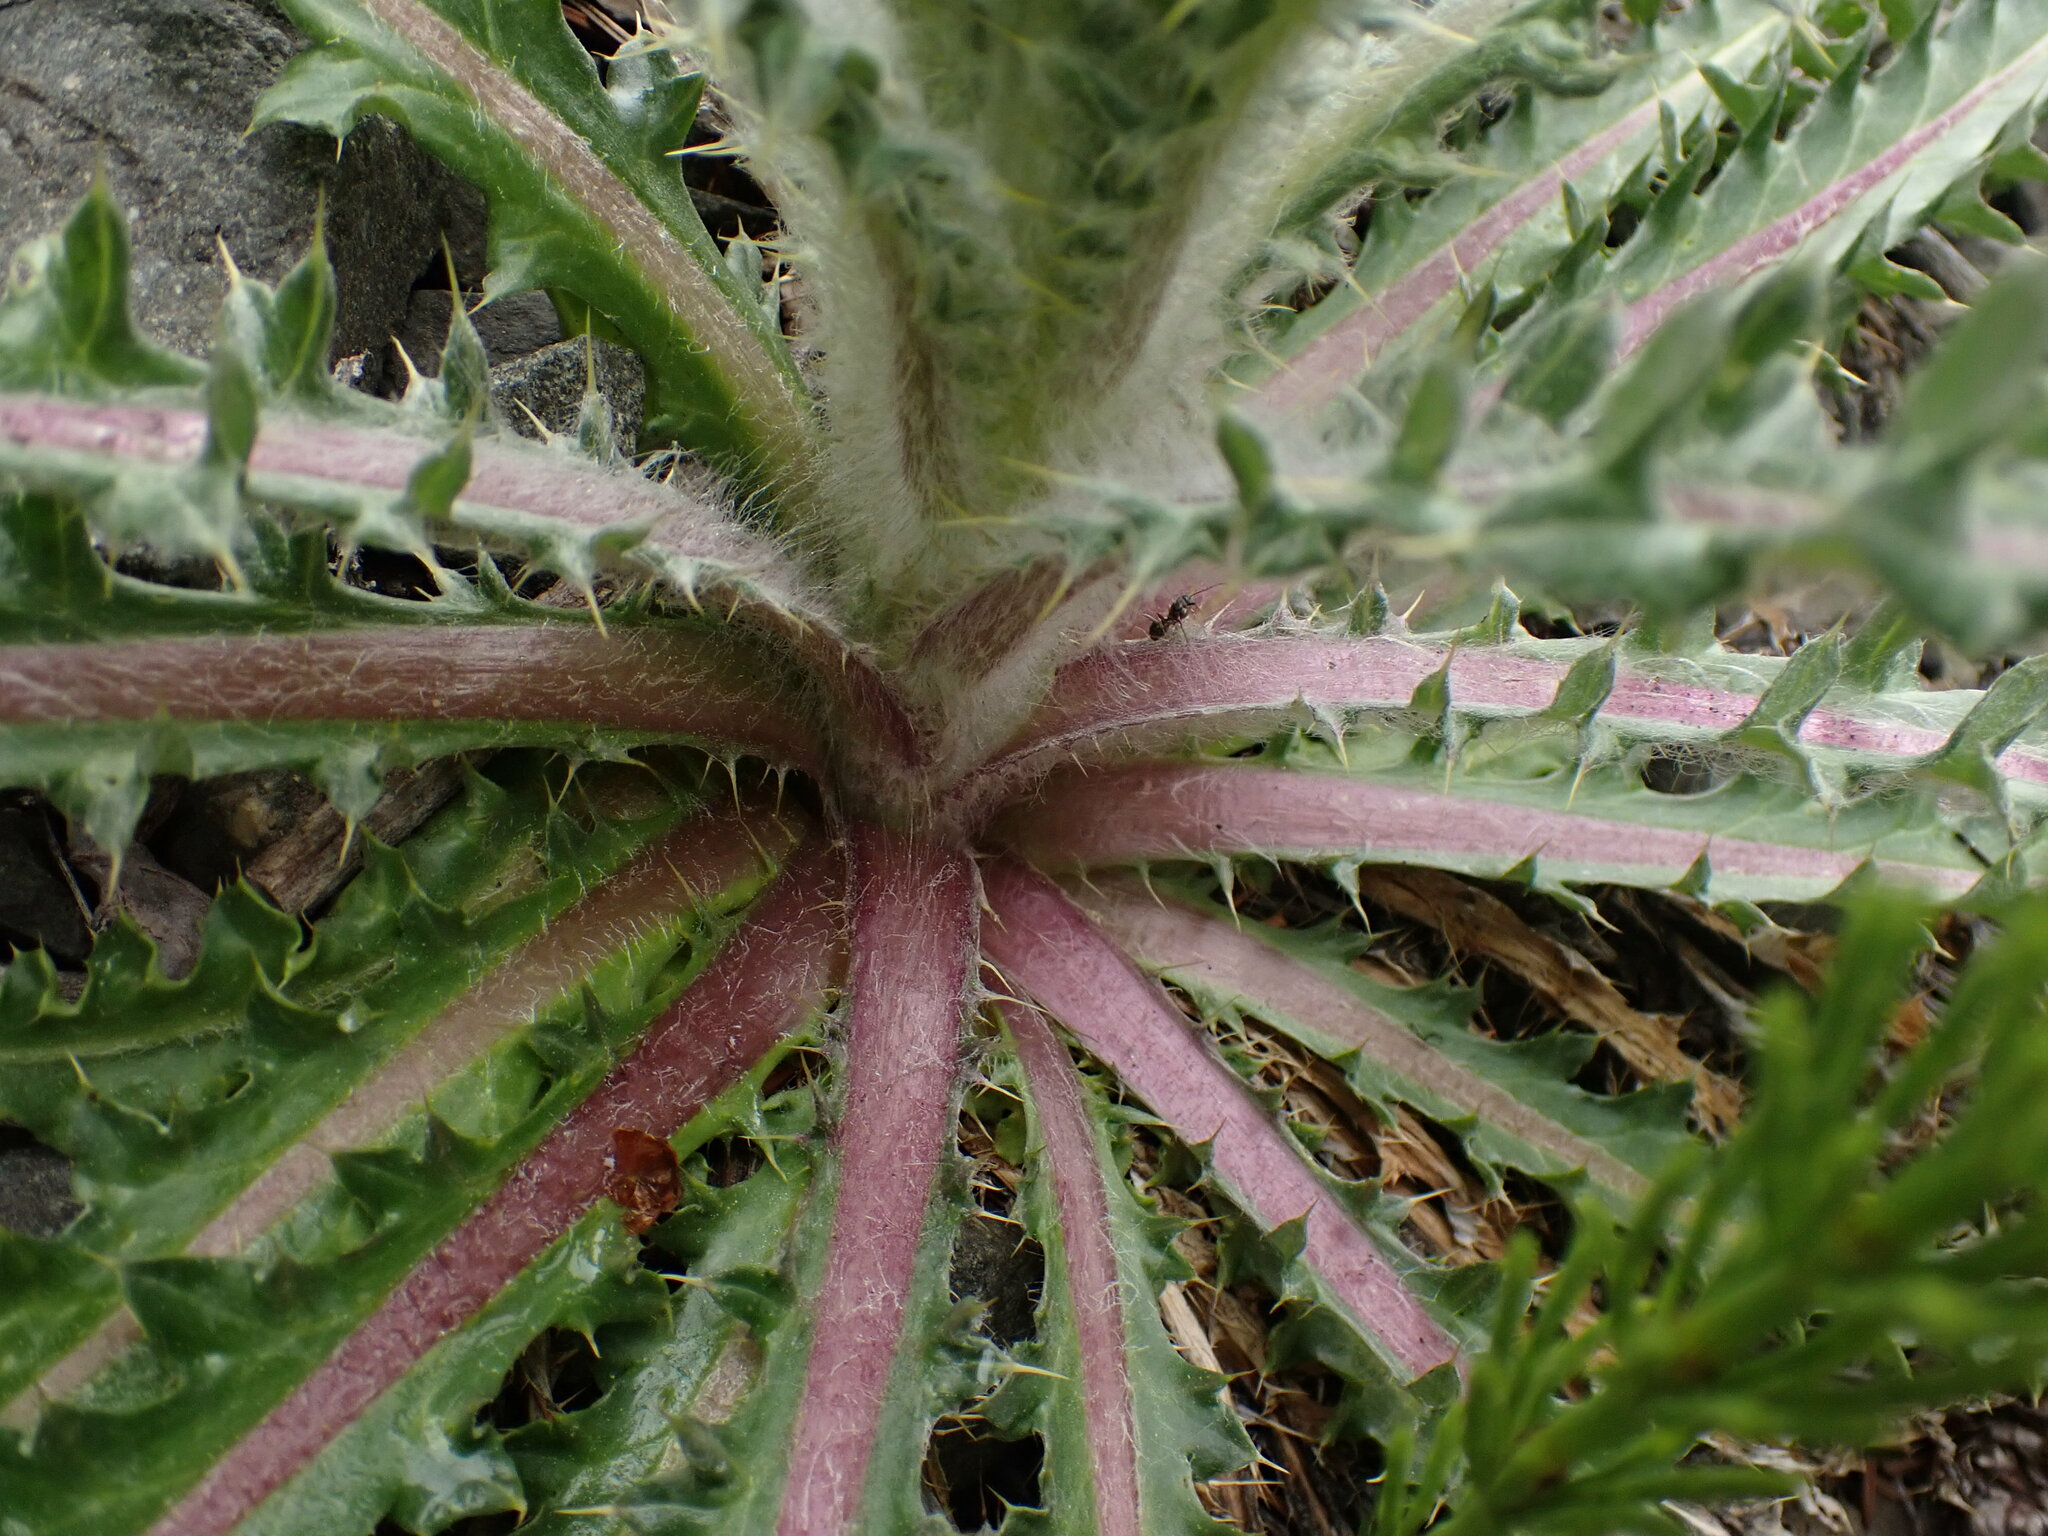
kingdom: Plantae
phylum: Tracheophyta
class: Magnoliopsida
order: Asterales
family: Asteraceae
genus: Cirsium
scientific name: Cirsium hookerianum
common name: Hooker's thistle
